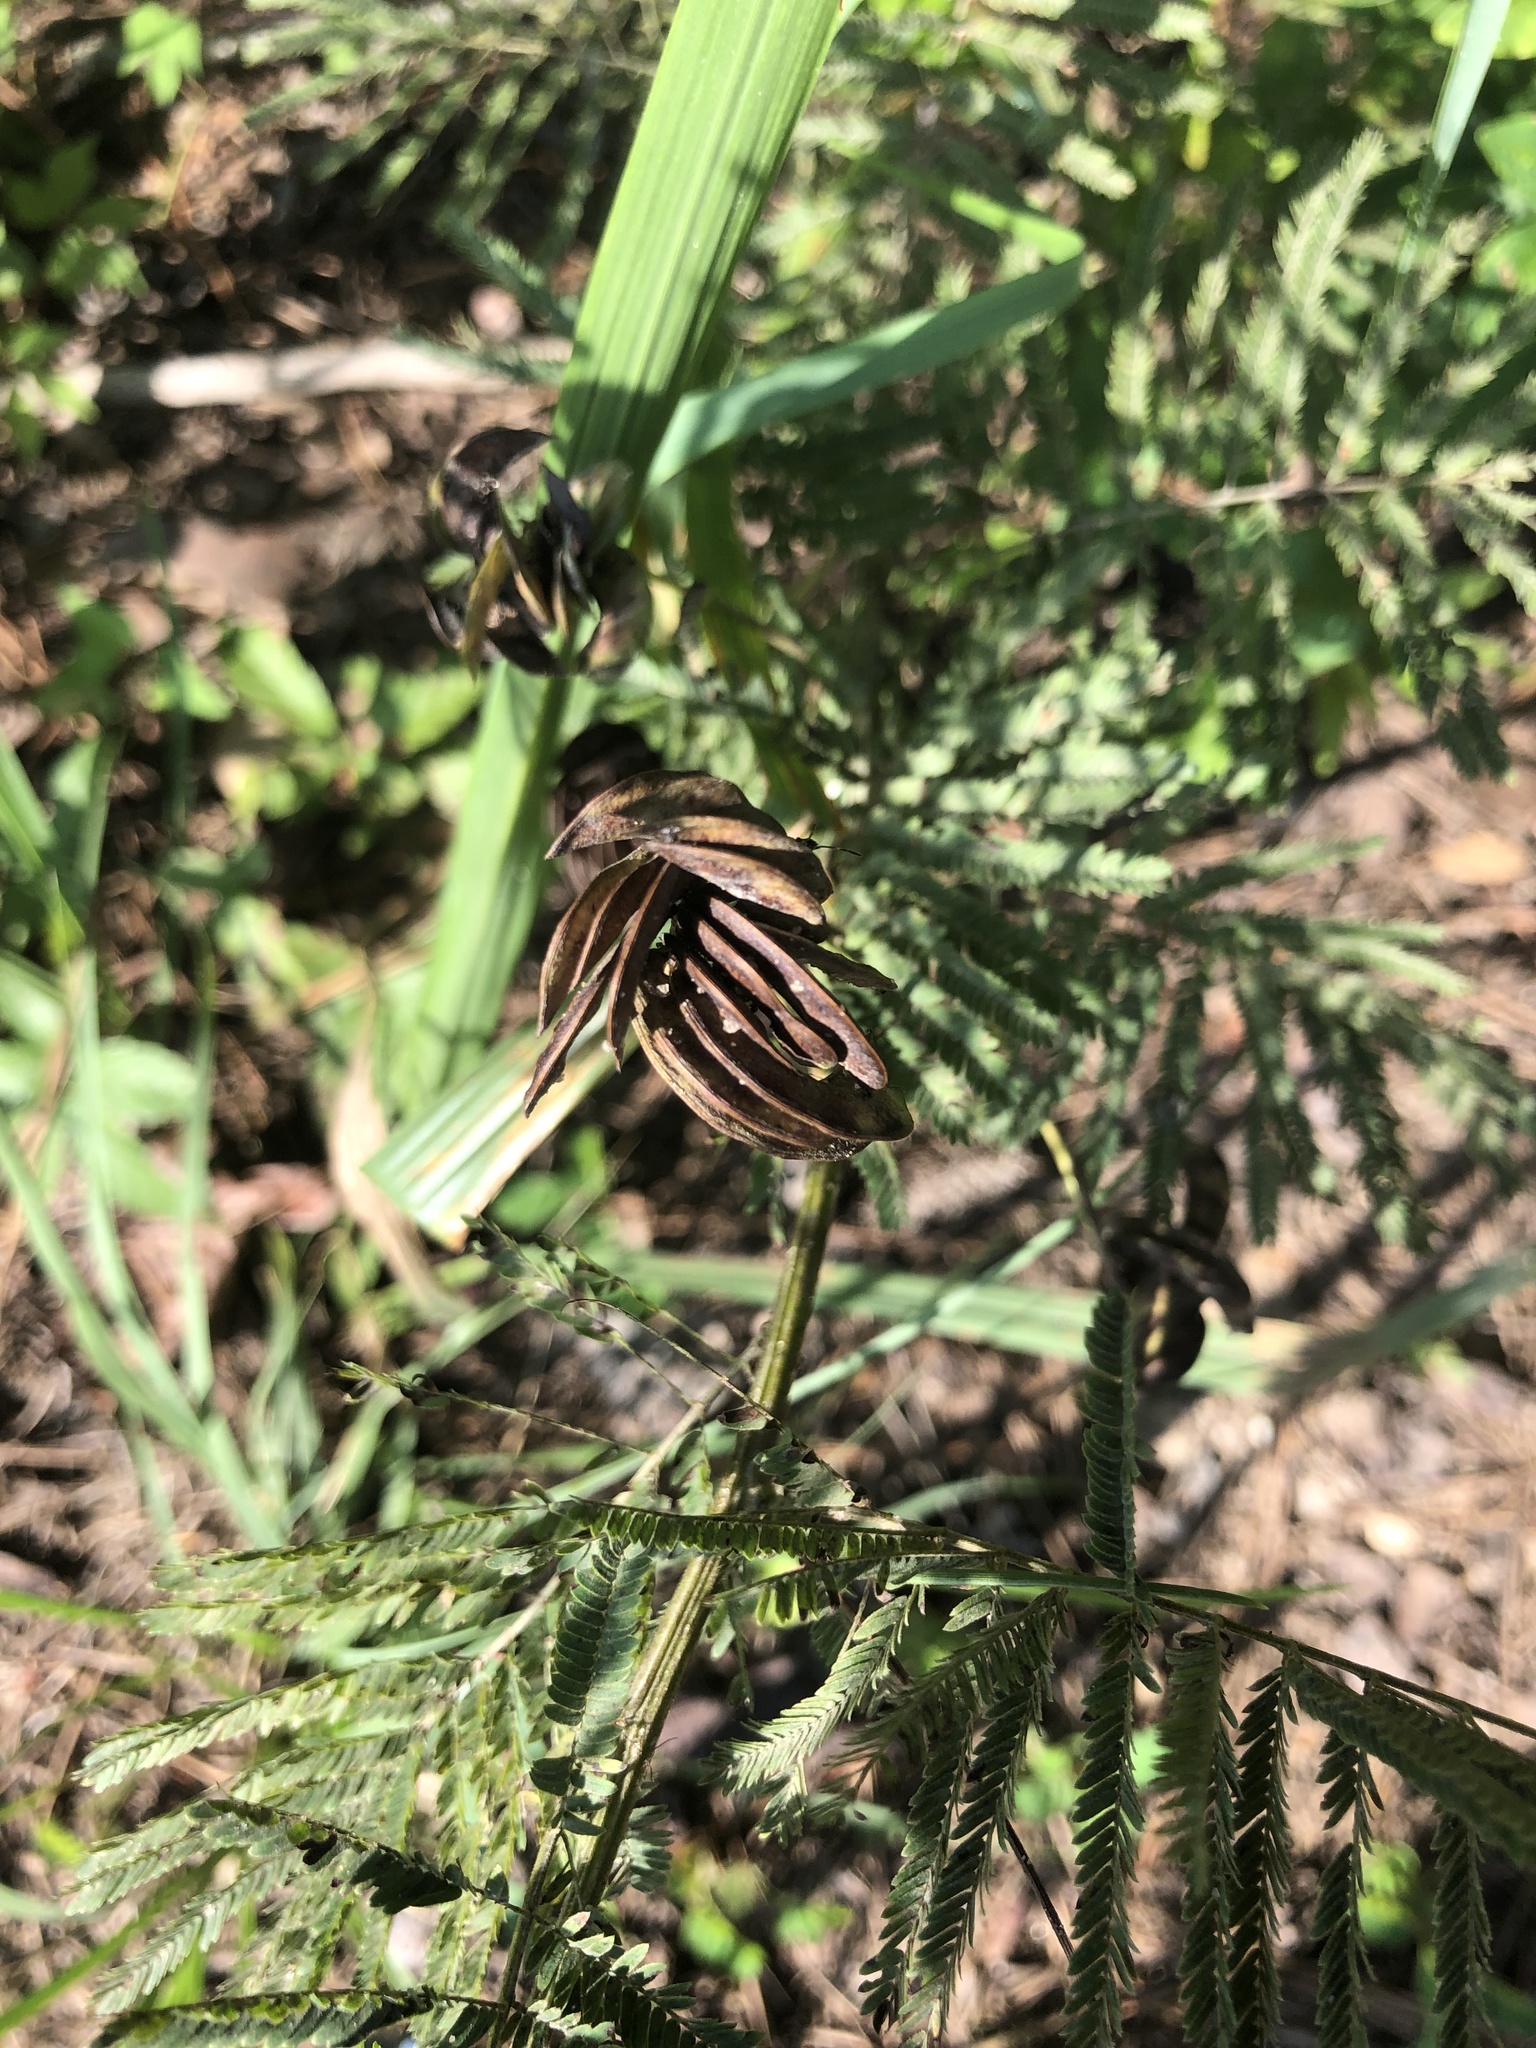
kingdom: Plantae
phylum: Tracheophyta
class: Magnoliopsida
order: Fabales
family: Fabaceae
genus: Desmanthus
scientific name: Desmanthus illinoensis
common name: Illinois bundle-flower
